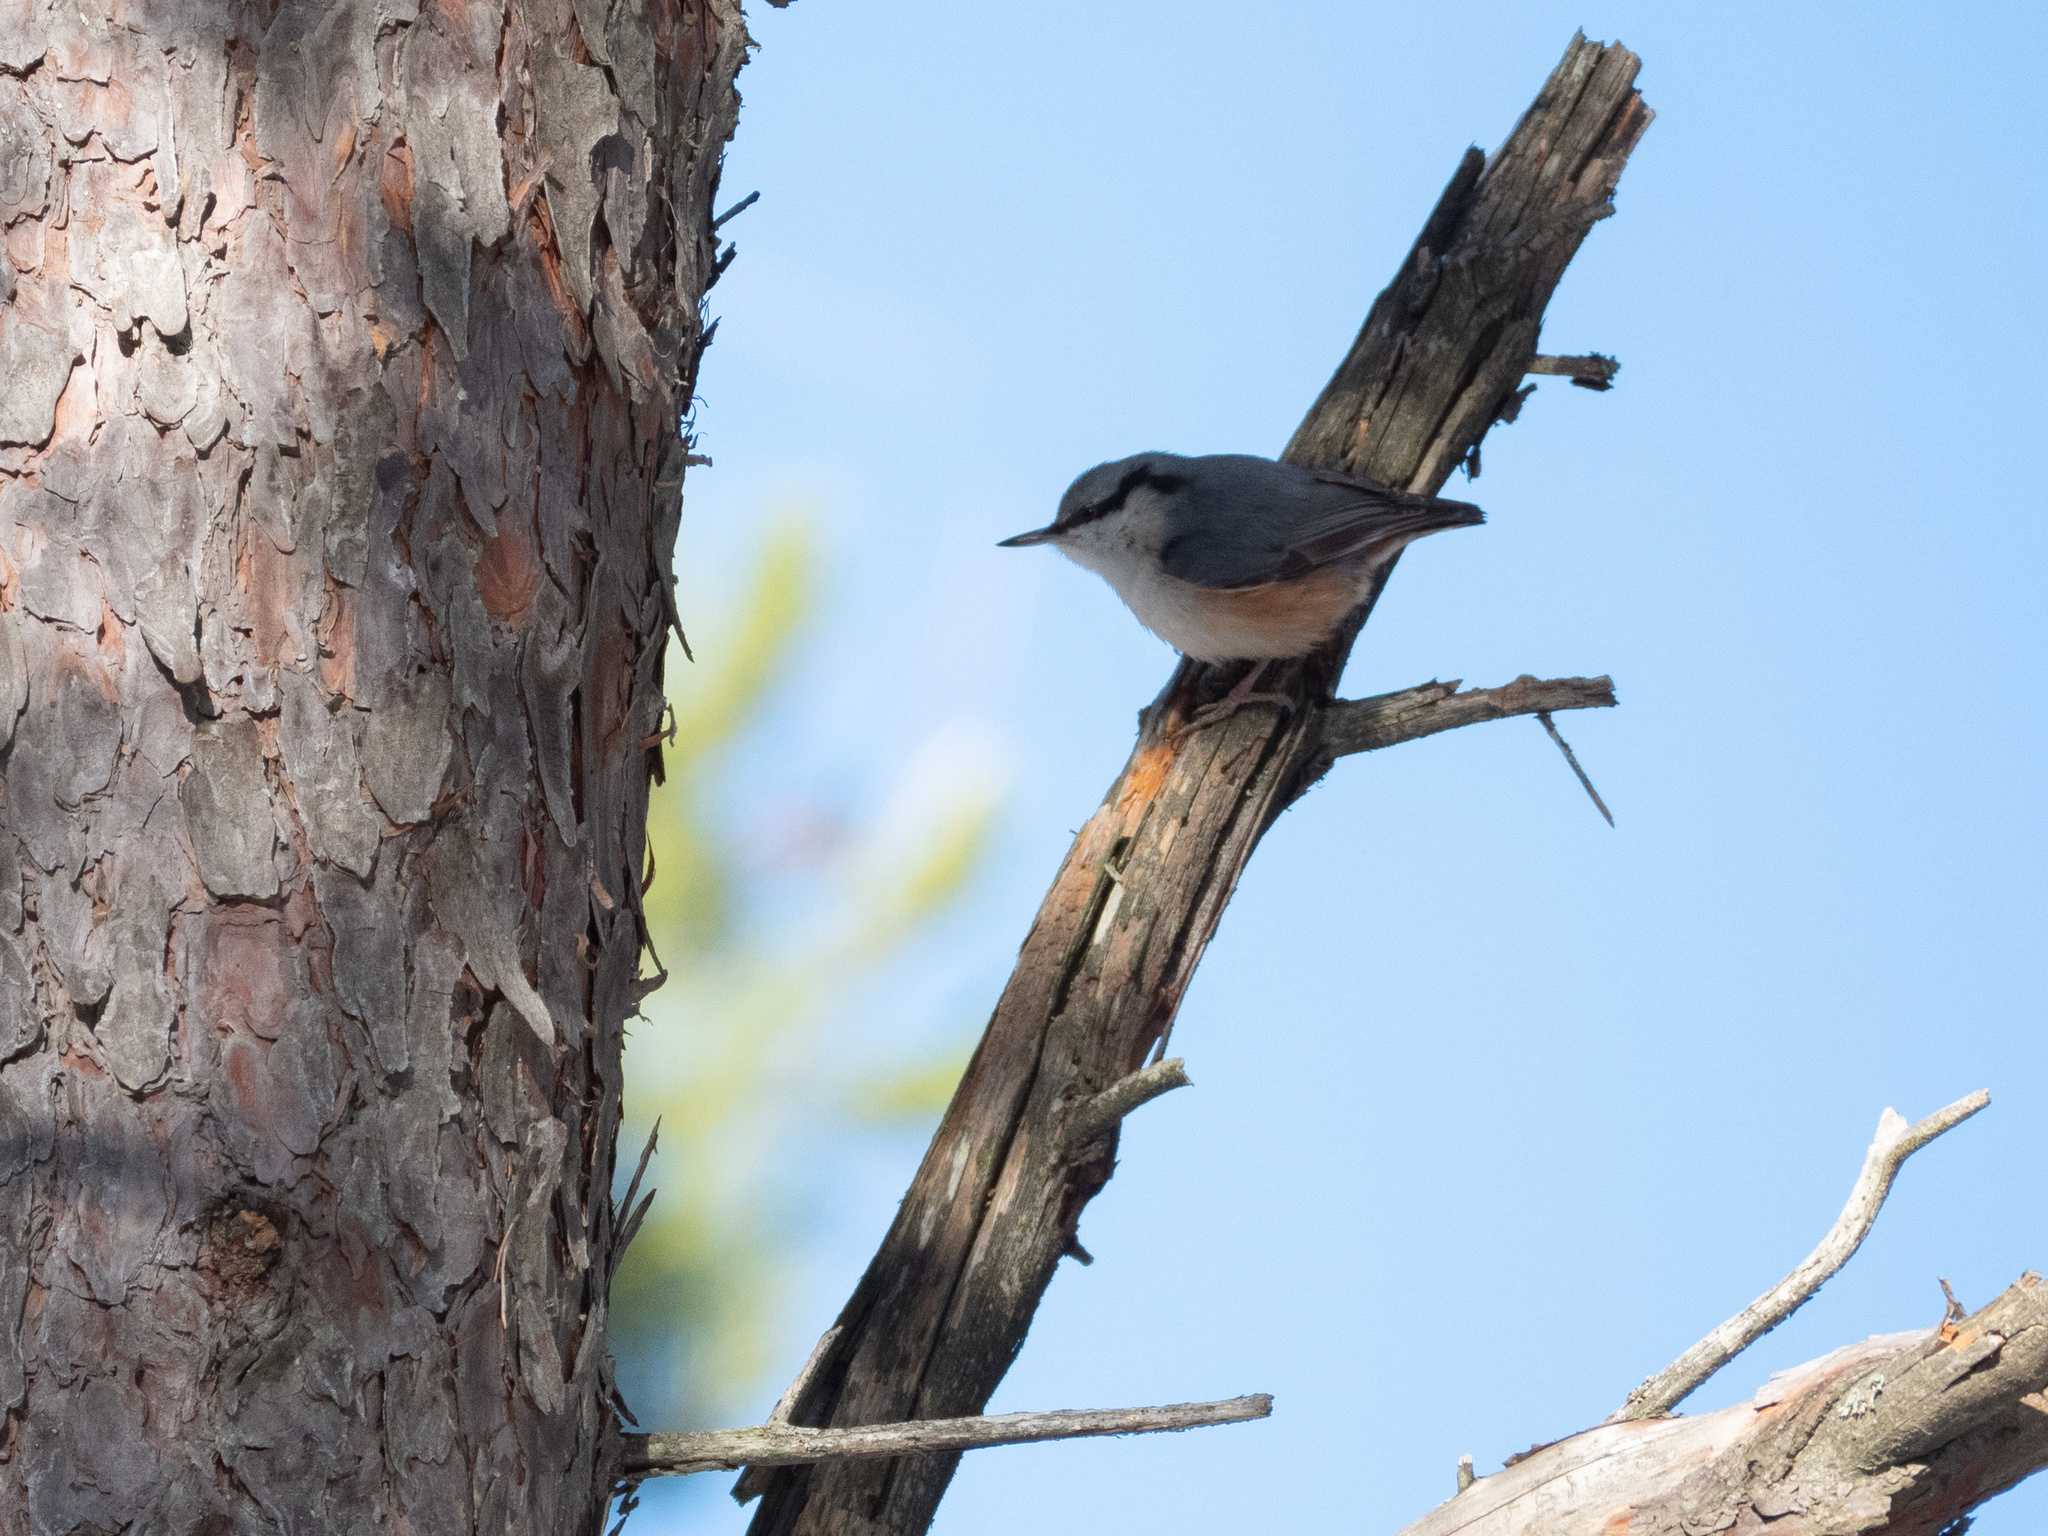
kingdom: Animalia
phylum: Chordata
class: Aves
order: Passeriformes
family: Sittidae
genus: Sitta
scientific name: Sitta europaea
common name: Eurasian nuthatch
